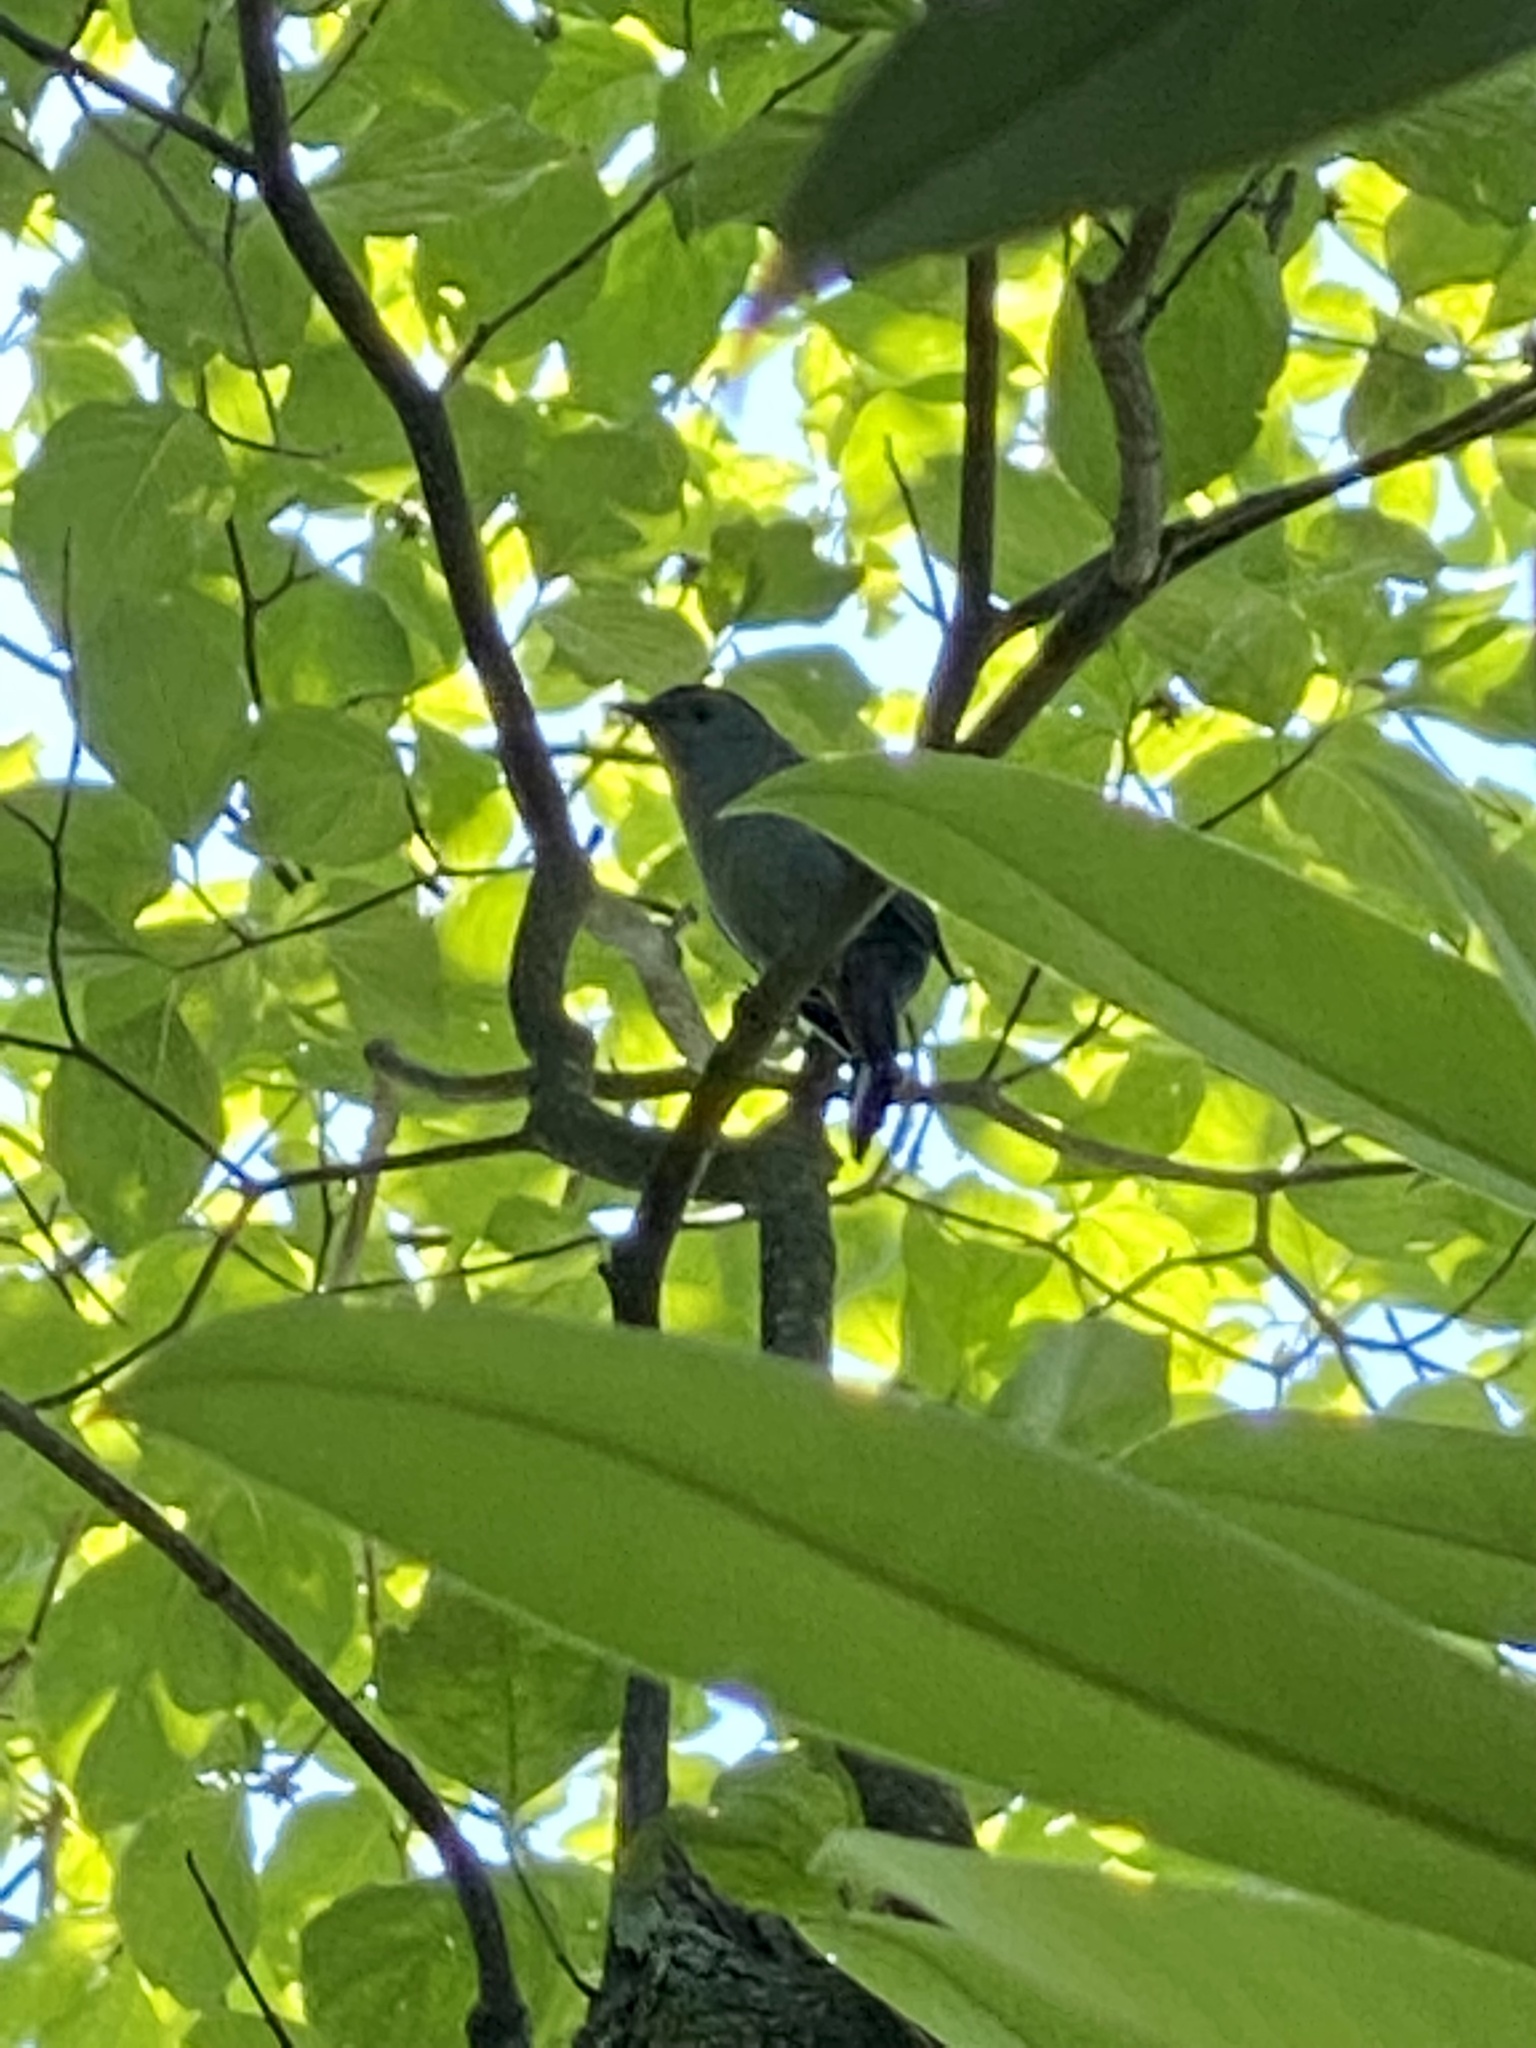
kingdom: Animalia
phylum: Chordata
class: Aves
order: Passeriformes
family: Mimidae
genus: Dumetella
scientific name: Dumetella carolinensis
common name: Gray catbird
